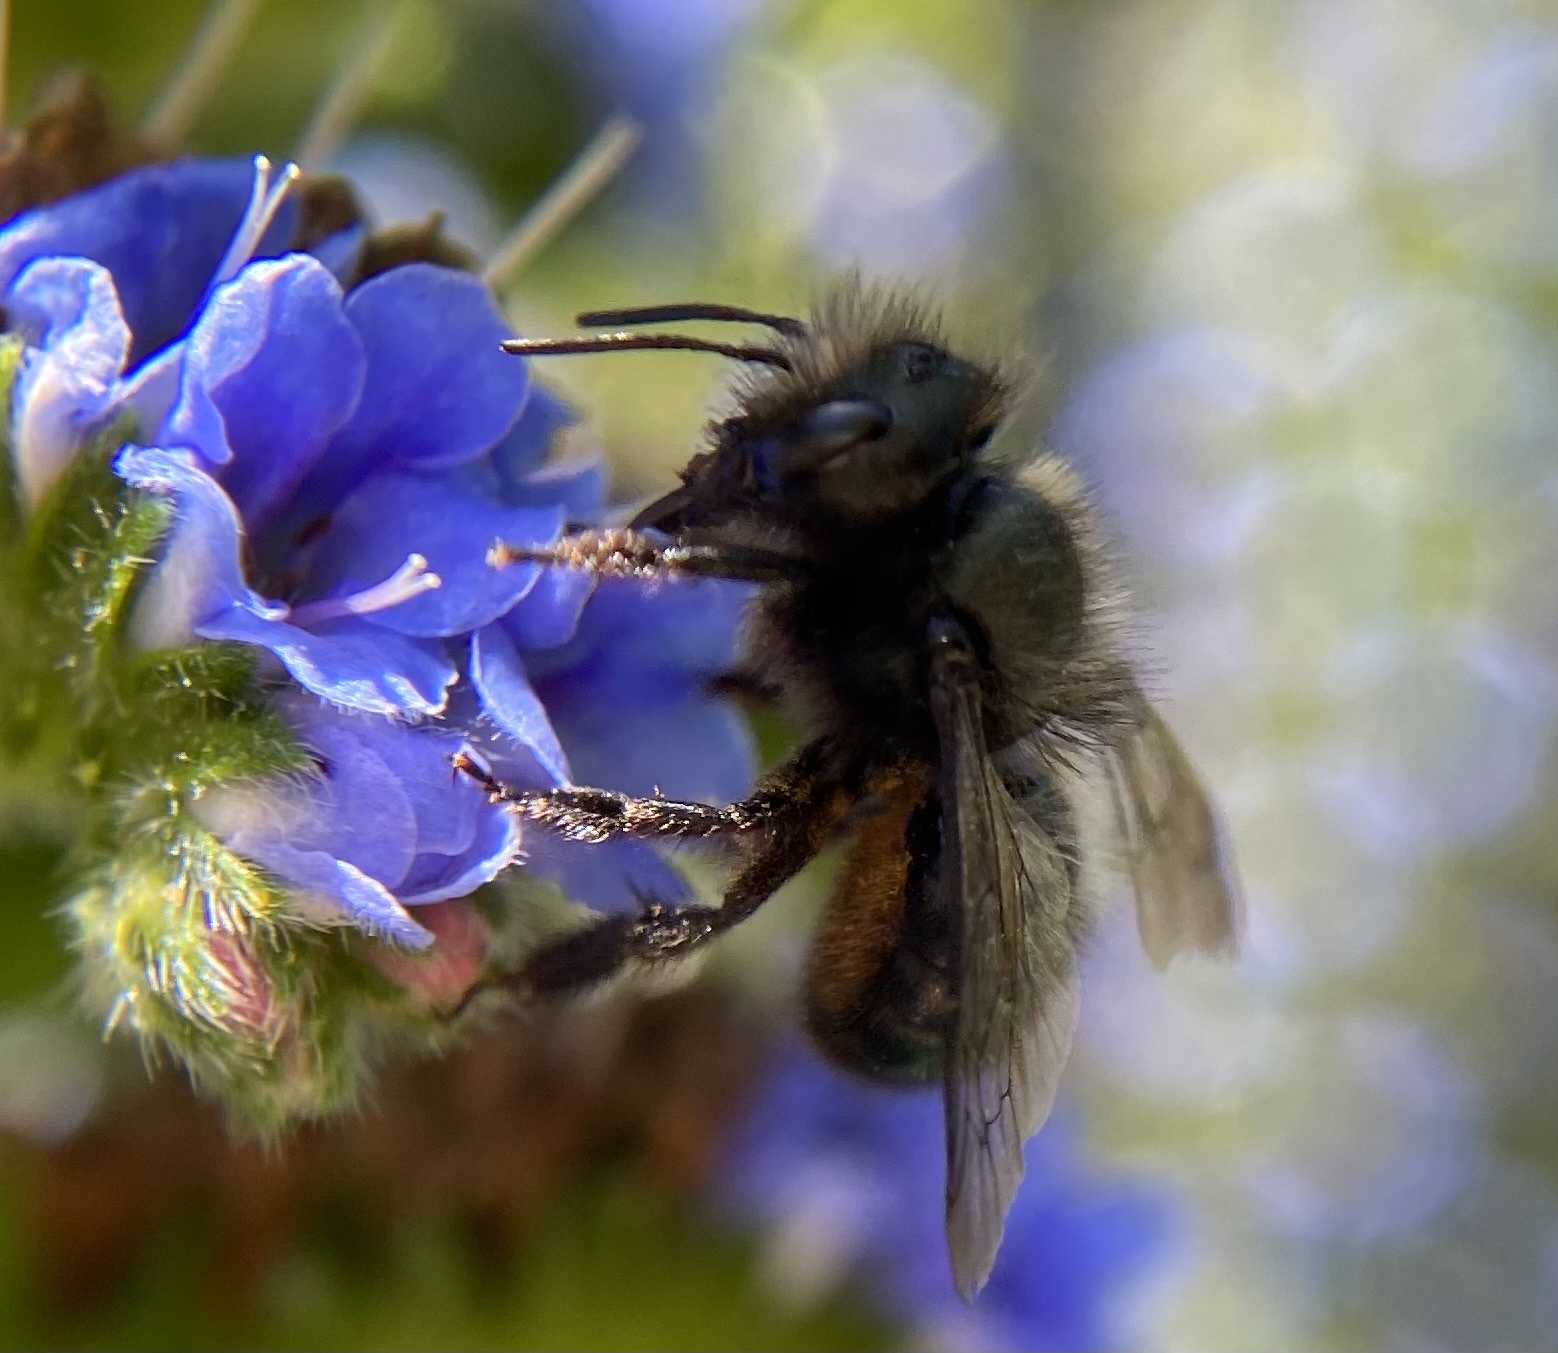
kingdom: Animalia
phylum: Arthropoda
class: Insecta
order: Hymenoptera
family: Megachilidae
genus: Osmia
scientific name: Osmia lignaria
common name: Blue orchard bee
